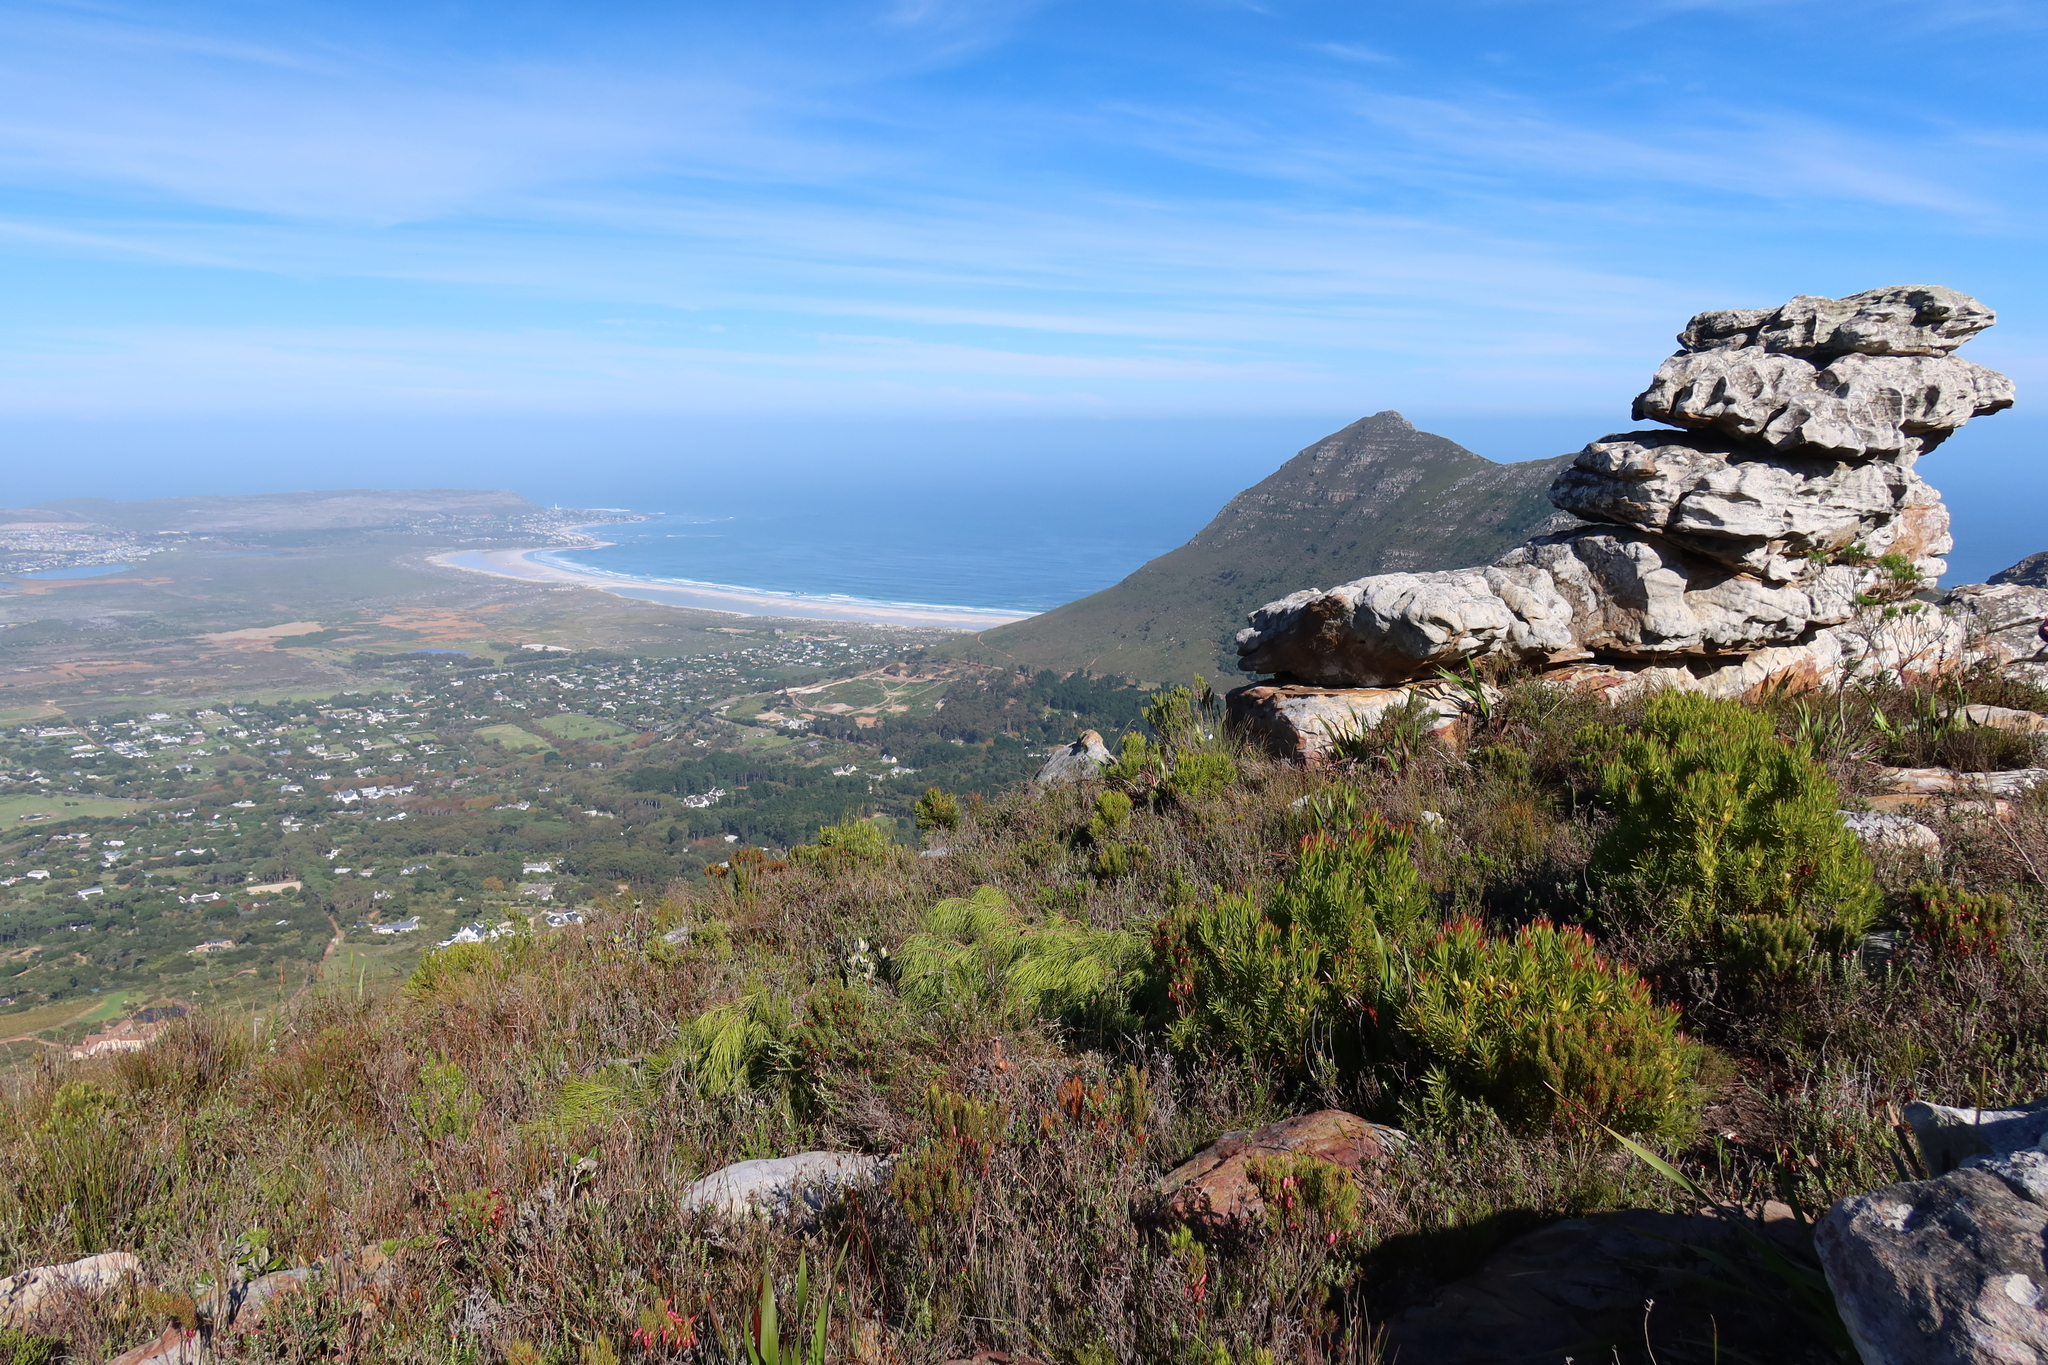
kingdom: Plantae
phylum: Tracheophyta
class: Pinopsida
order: Pinales
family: Pinaceae
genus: Pinus
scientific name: Pinus pinaster
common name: Maritime pine
